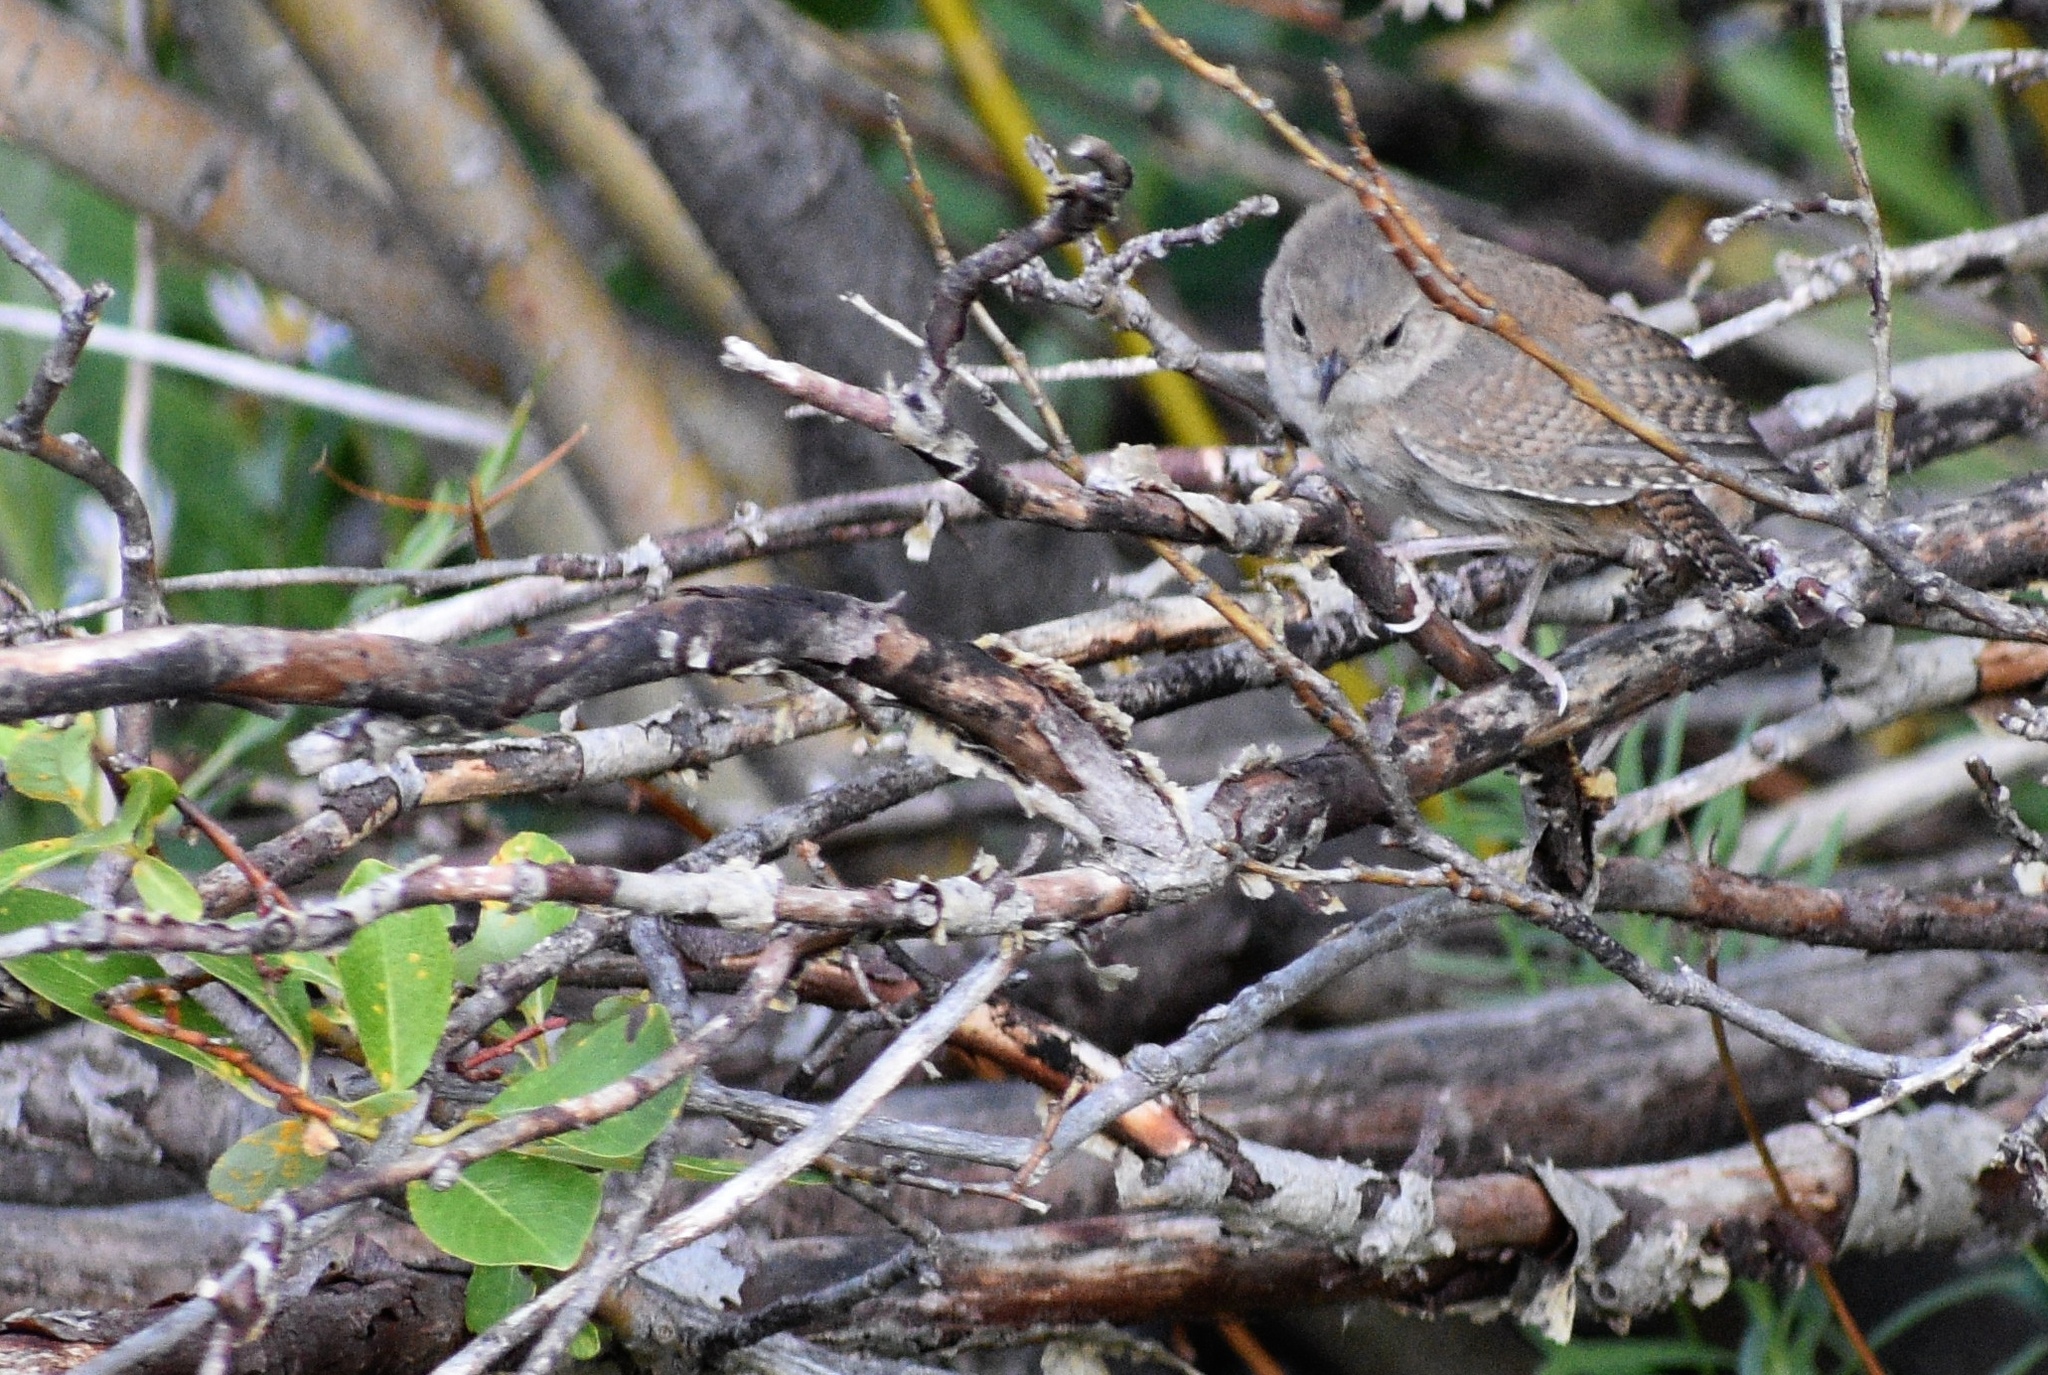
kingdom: Animalia
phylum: Chordata
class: Aves
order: Passeriformes
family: Troglodytidae
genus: Troglodytes
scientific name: Troglodytes aedon
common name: House wren
